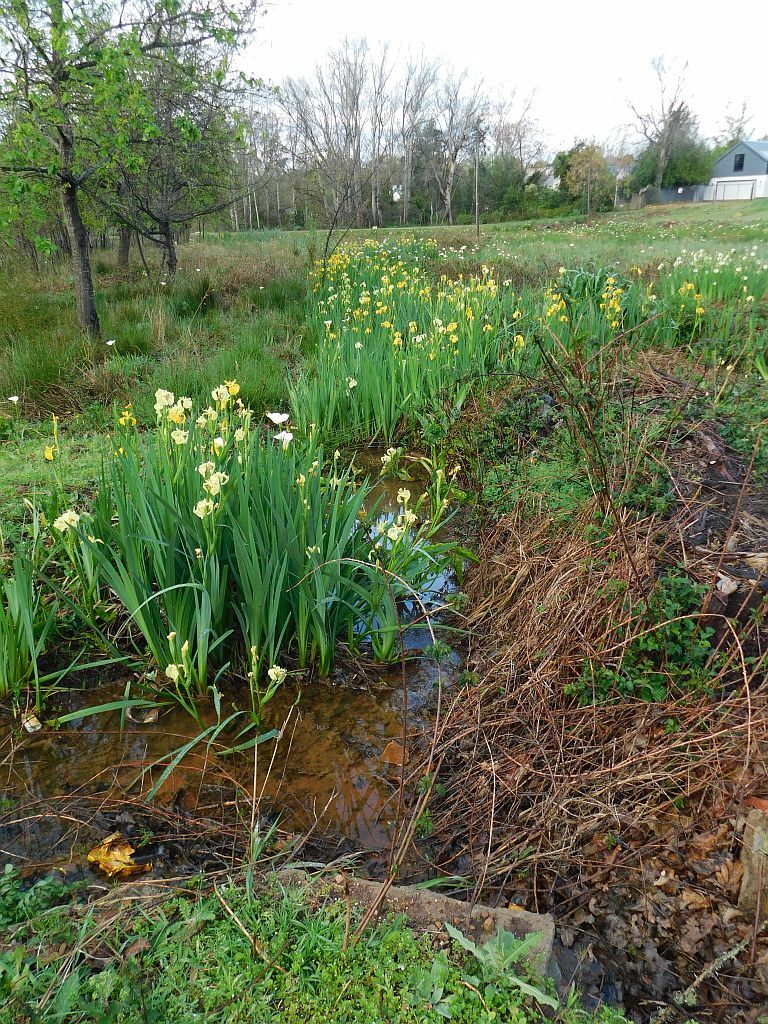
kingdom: Plantae
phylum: Tracheophyta
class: Liliopsida
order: Asparagales
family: Iridaceae
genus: Iris
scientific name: Iris pseudacorus
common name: Yellow flag
